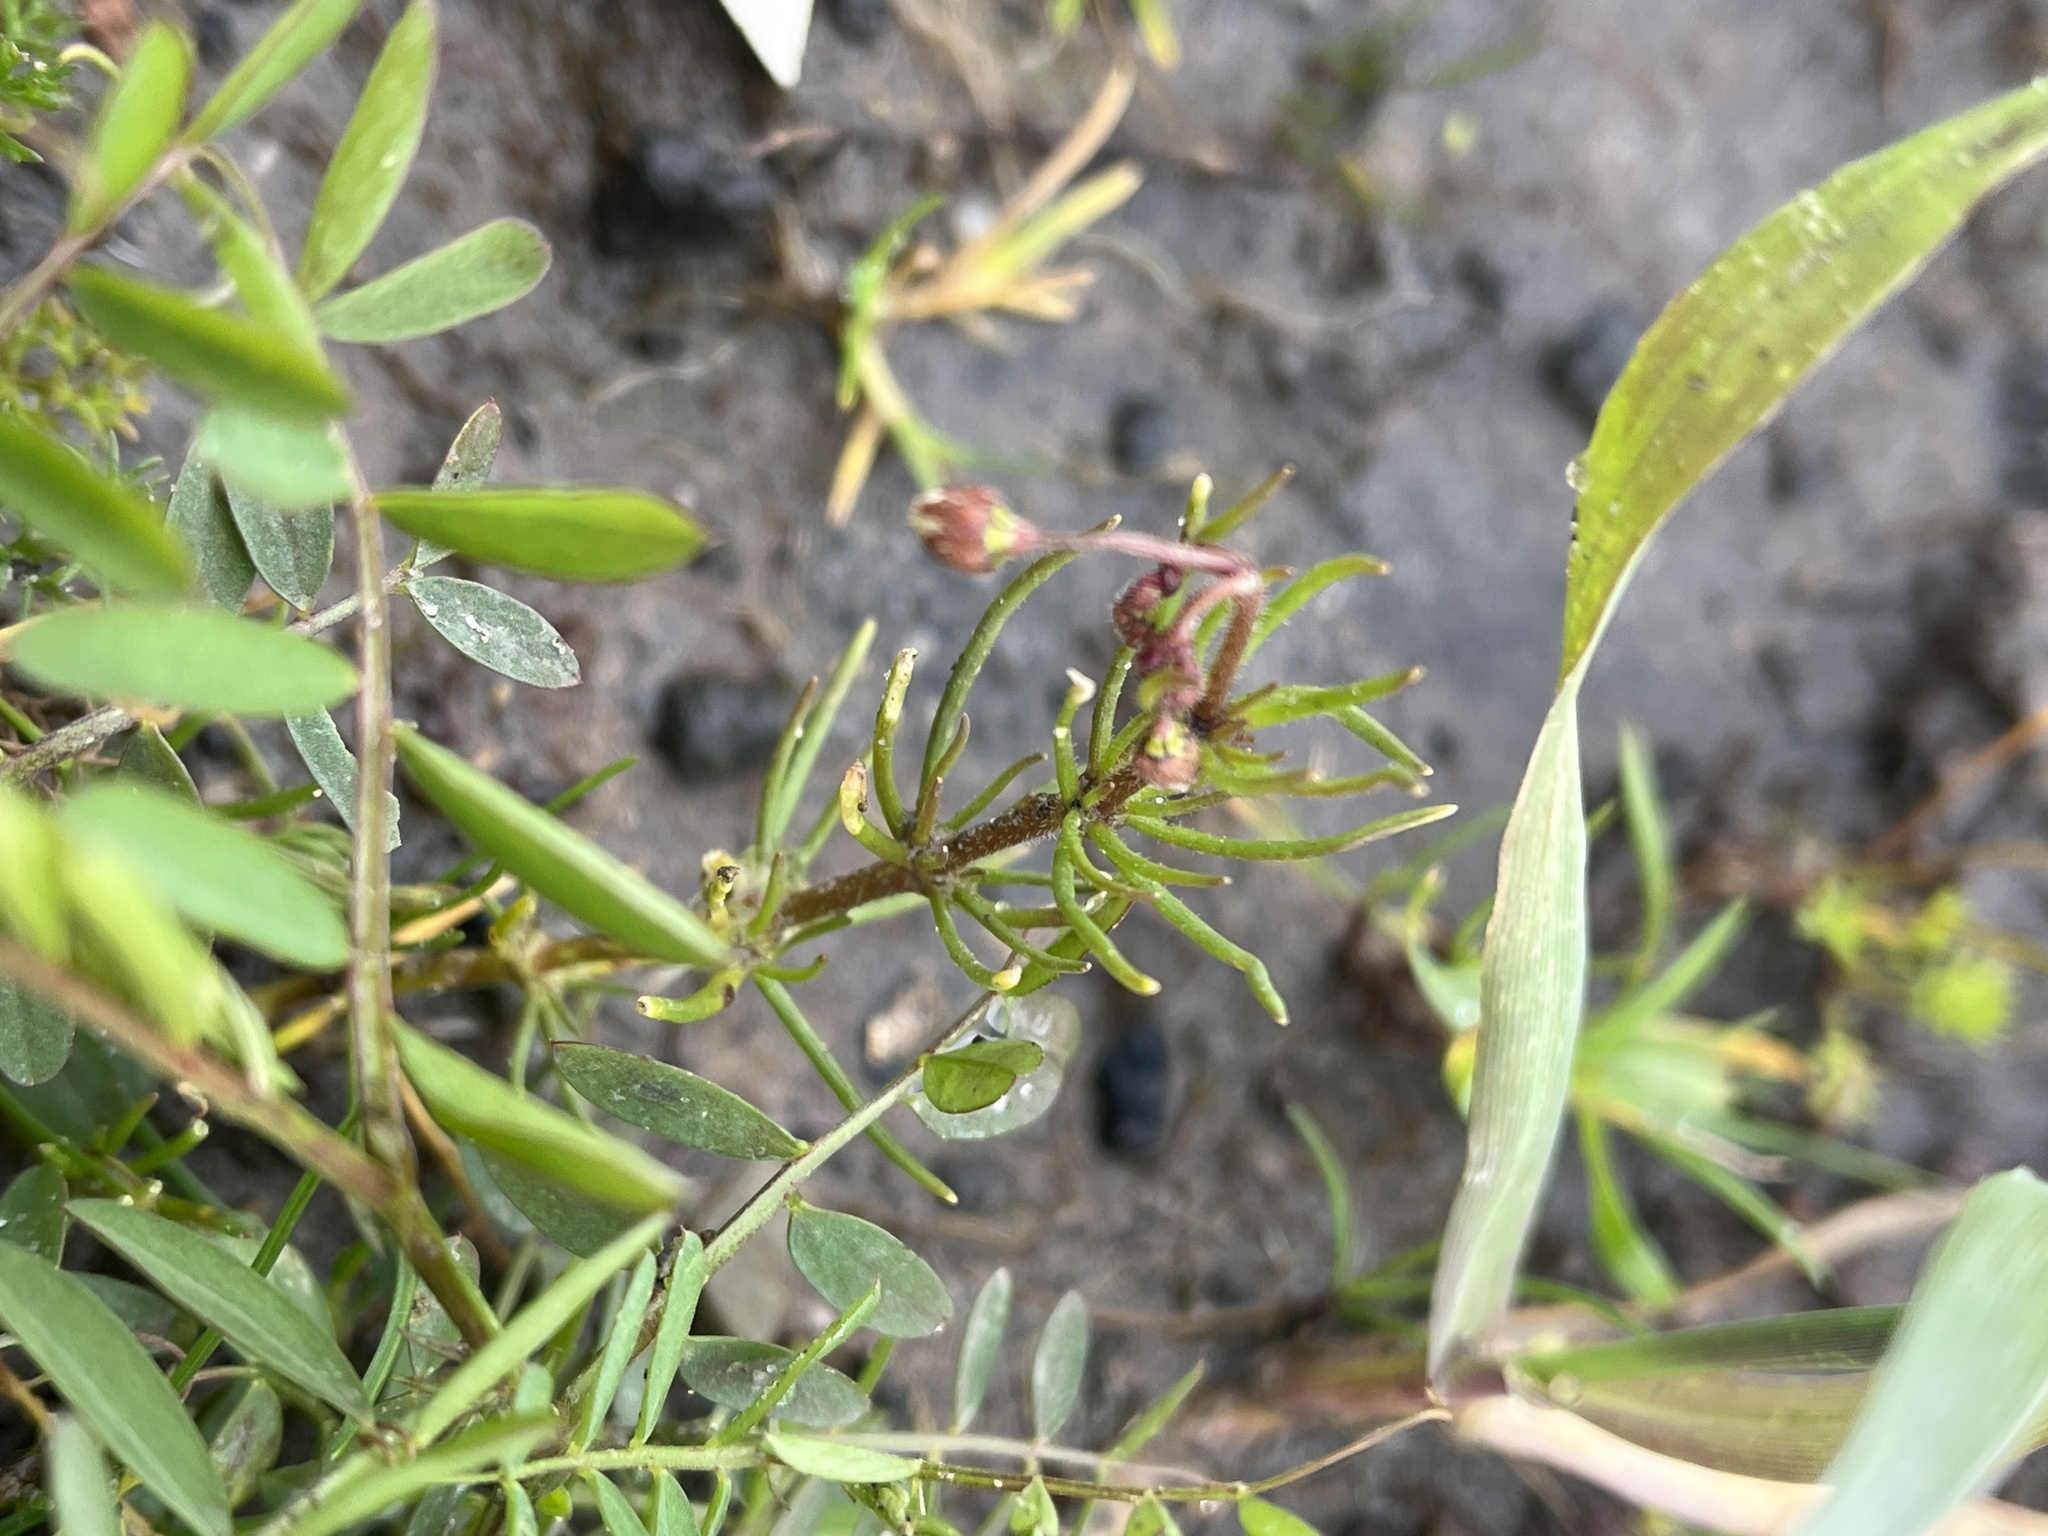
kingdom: Plantae
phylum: Tracheophyta
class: Magnoliopsida
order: Caryophyllales
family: Caryophyllaceae
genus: Spergula
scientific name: Spergula arvensis
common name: Corn spurrey
